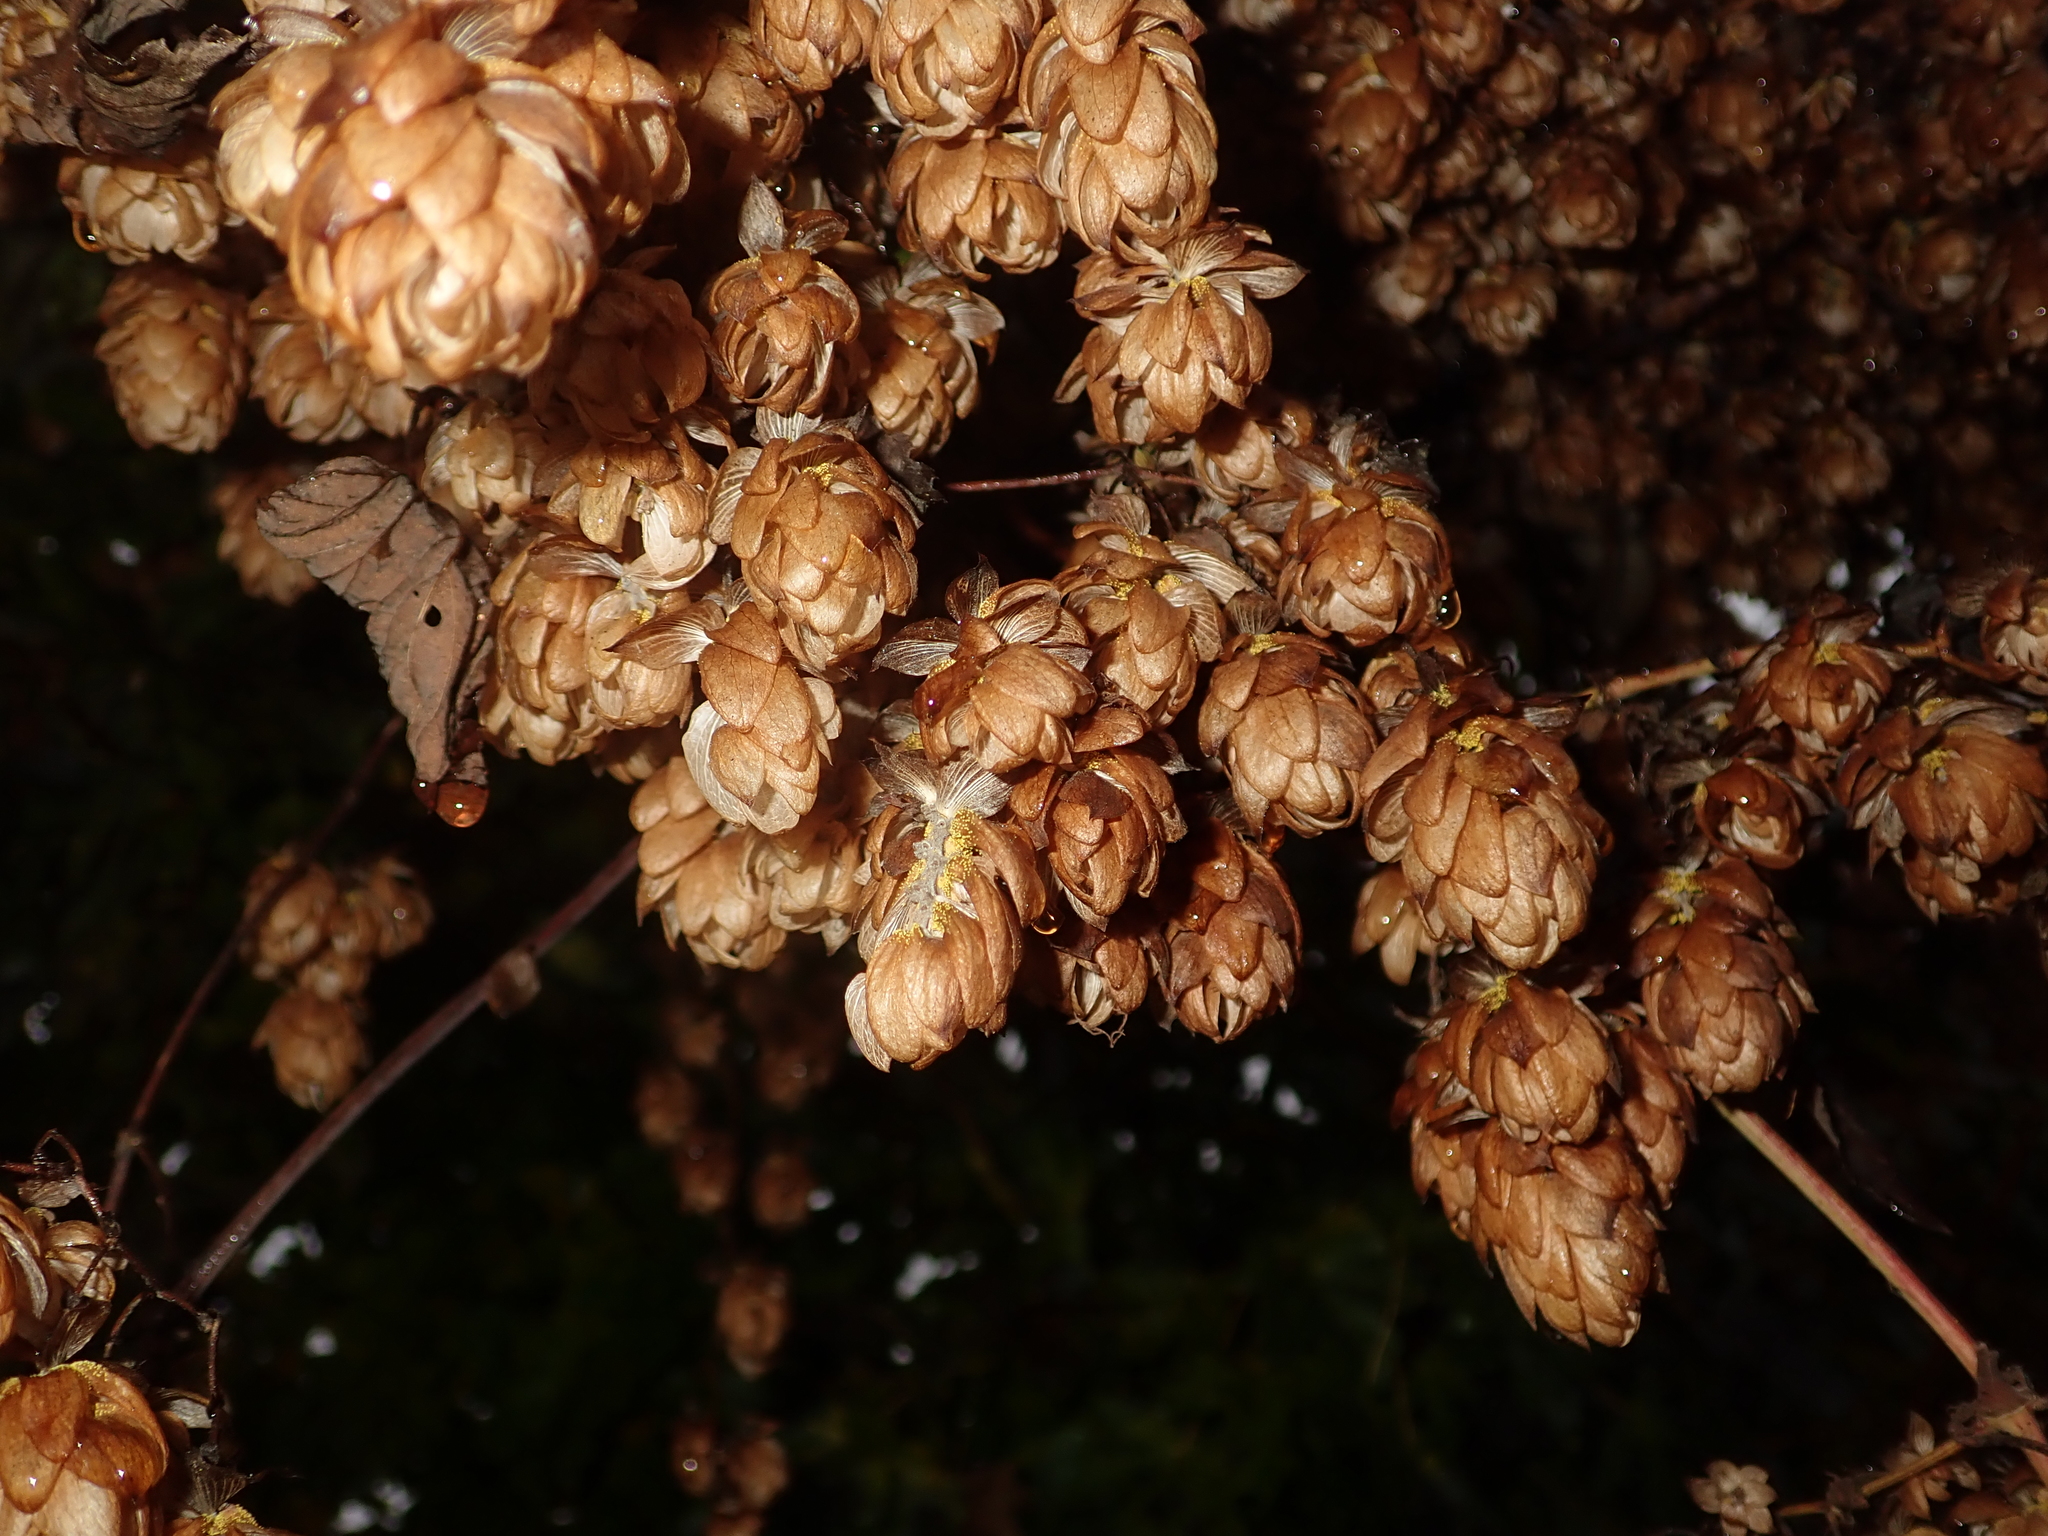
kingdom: Plantae
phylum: Tracheophyta
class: Magnoliopsida
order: Rosales
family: Cannabaceae
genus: Humulus
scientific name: Humulus lupulus
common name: Hop
